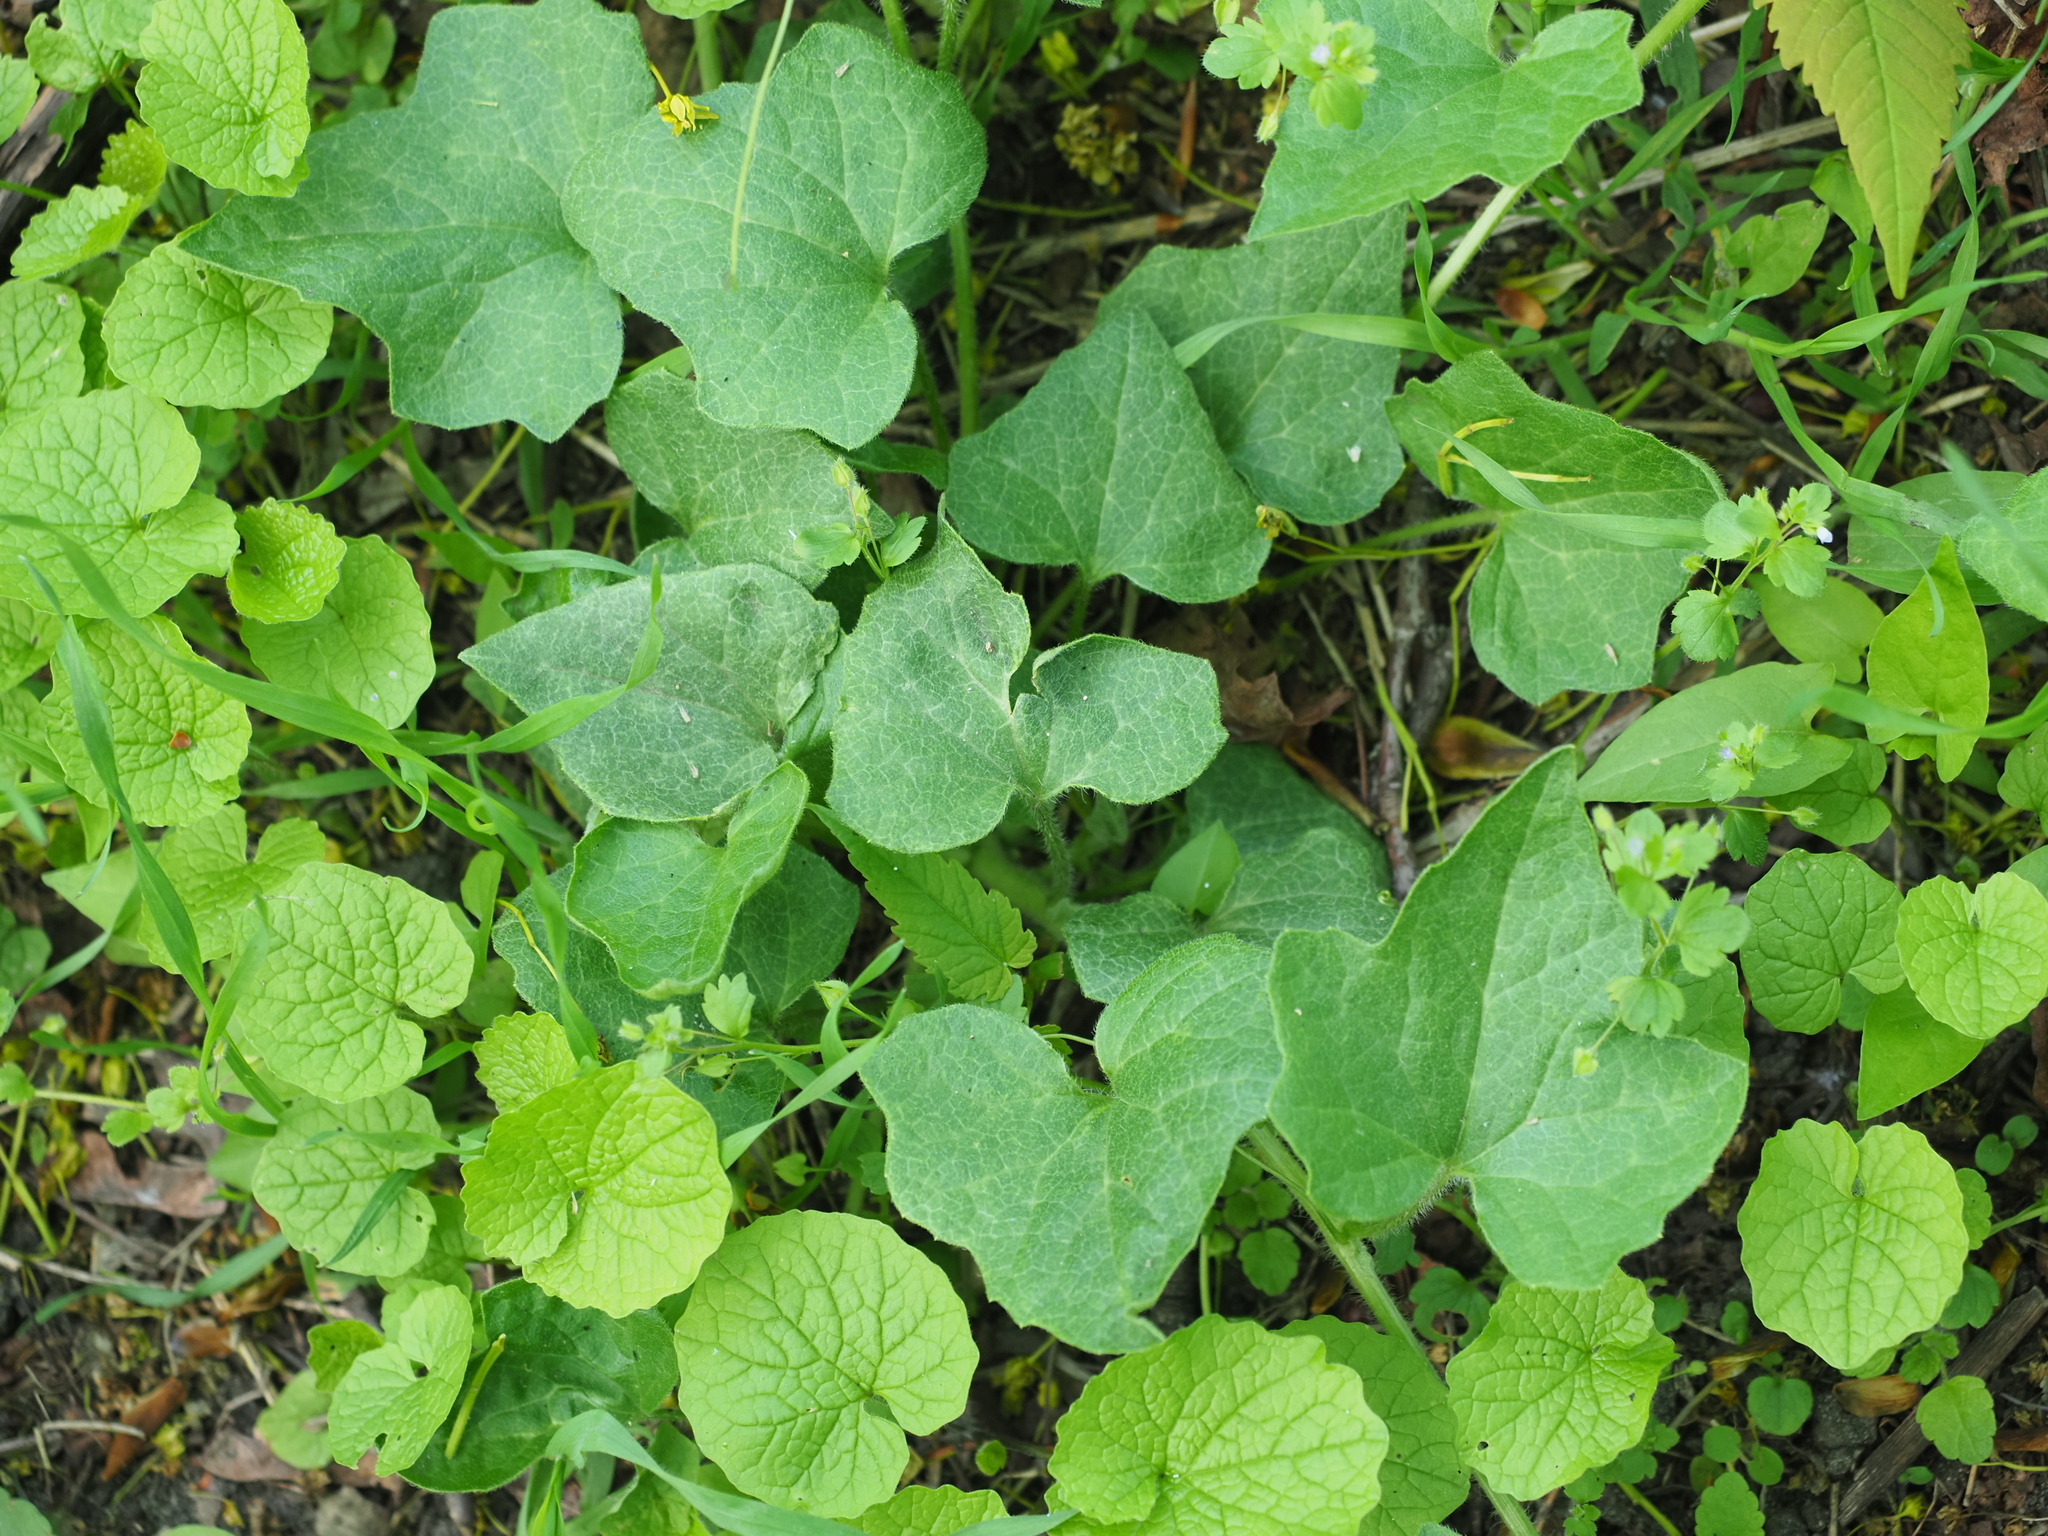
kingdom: Plantae
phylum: Tracheophyta
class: Magnoliopsida
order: Ranunculales
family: Ranunculaceae
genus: Ficaria
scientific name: Ficaria verna
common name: Lesser celandine
